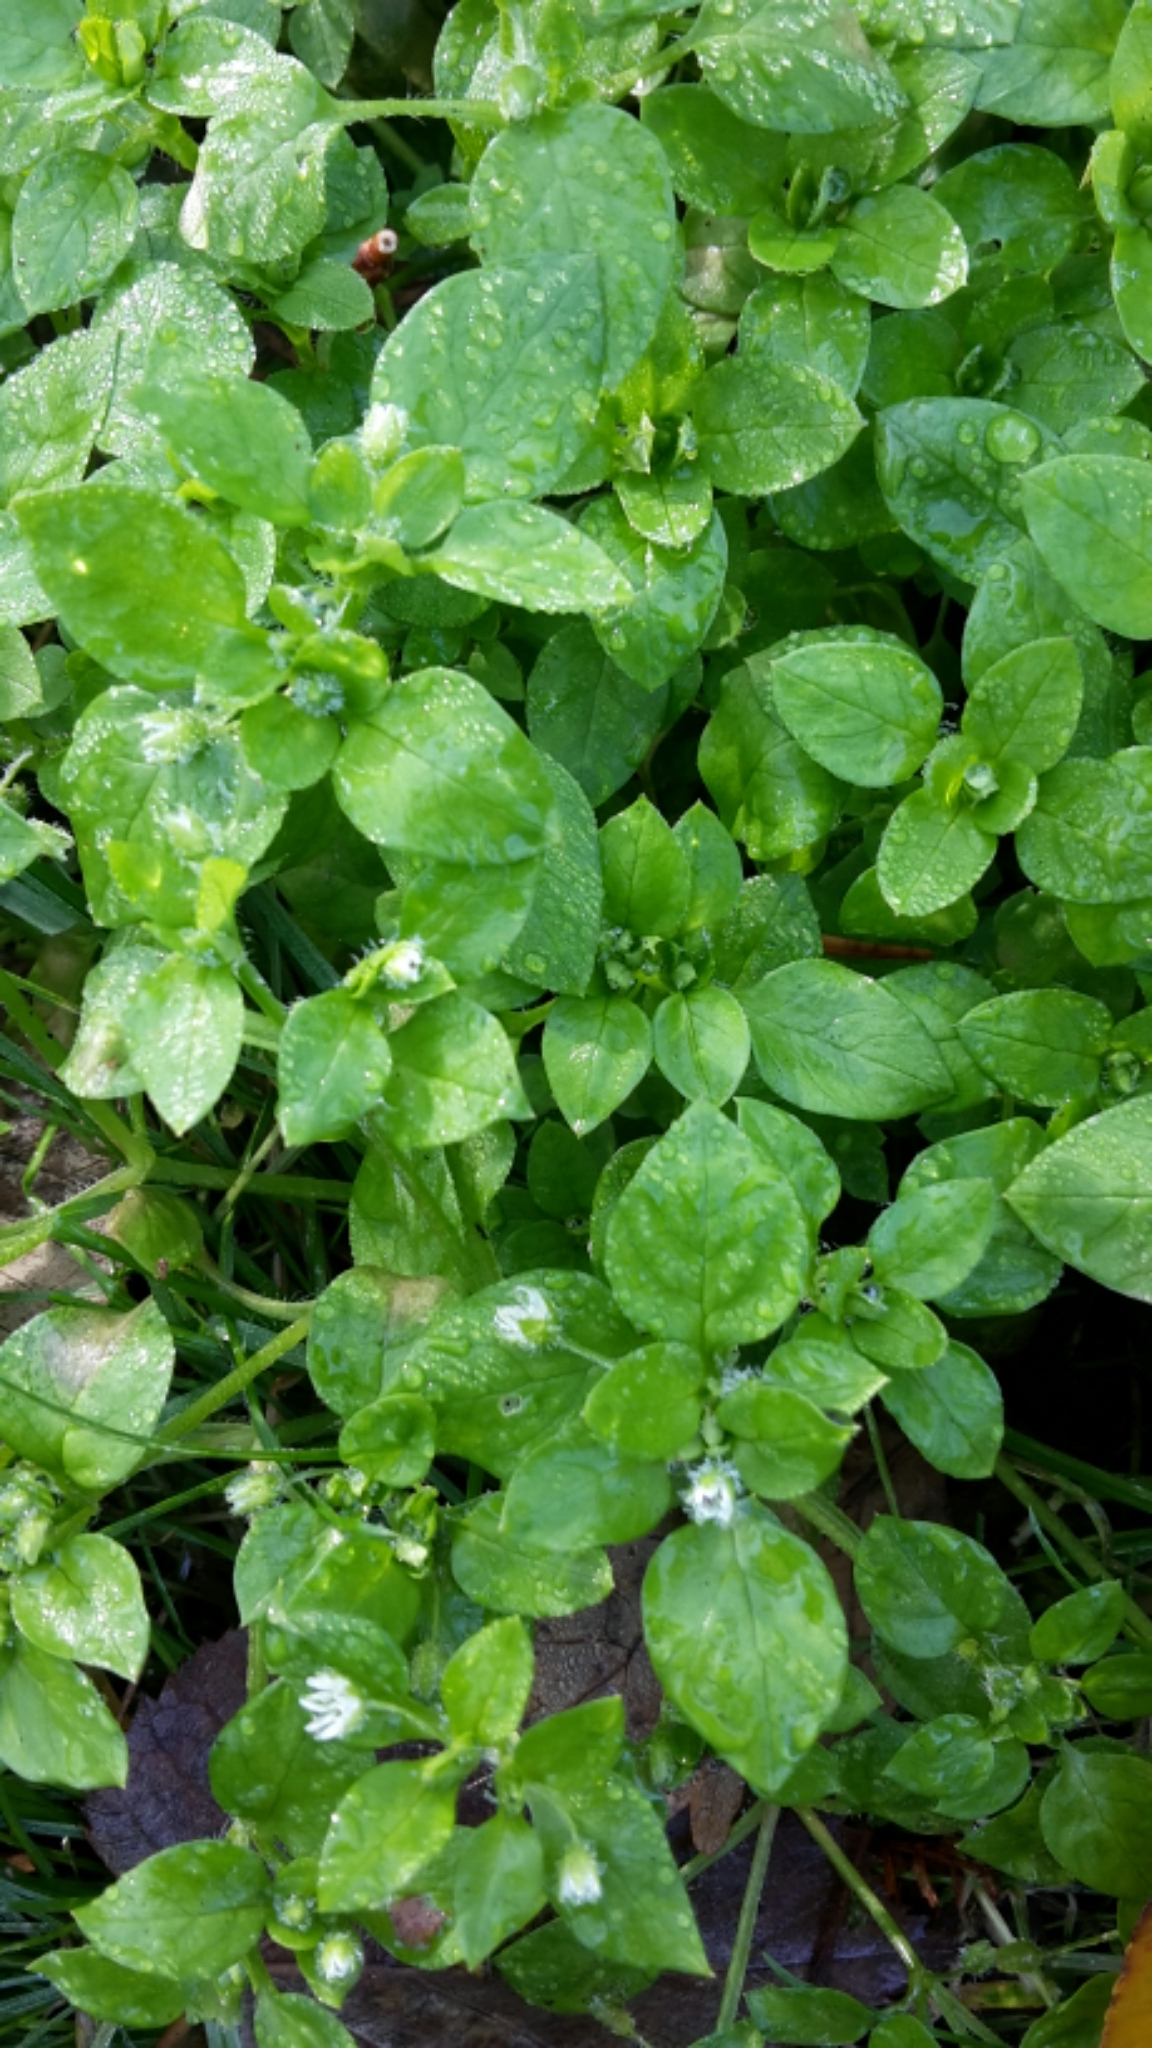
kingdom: Plantae
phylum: Tracheophyta
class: Magnoliopsida
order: Caryophyllales
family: Caryophyllaceae
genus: Stellaria
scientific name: Stellaria media
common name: Common chickweed
